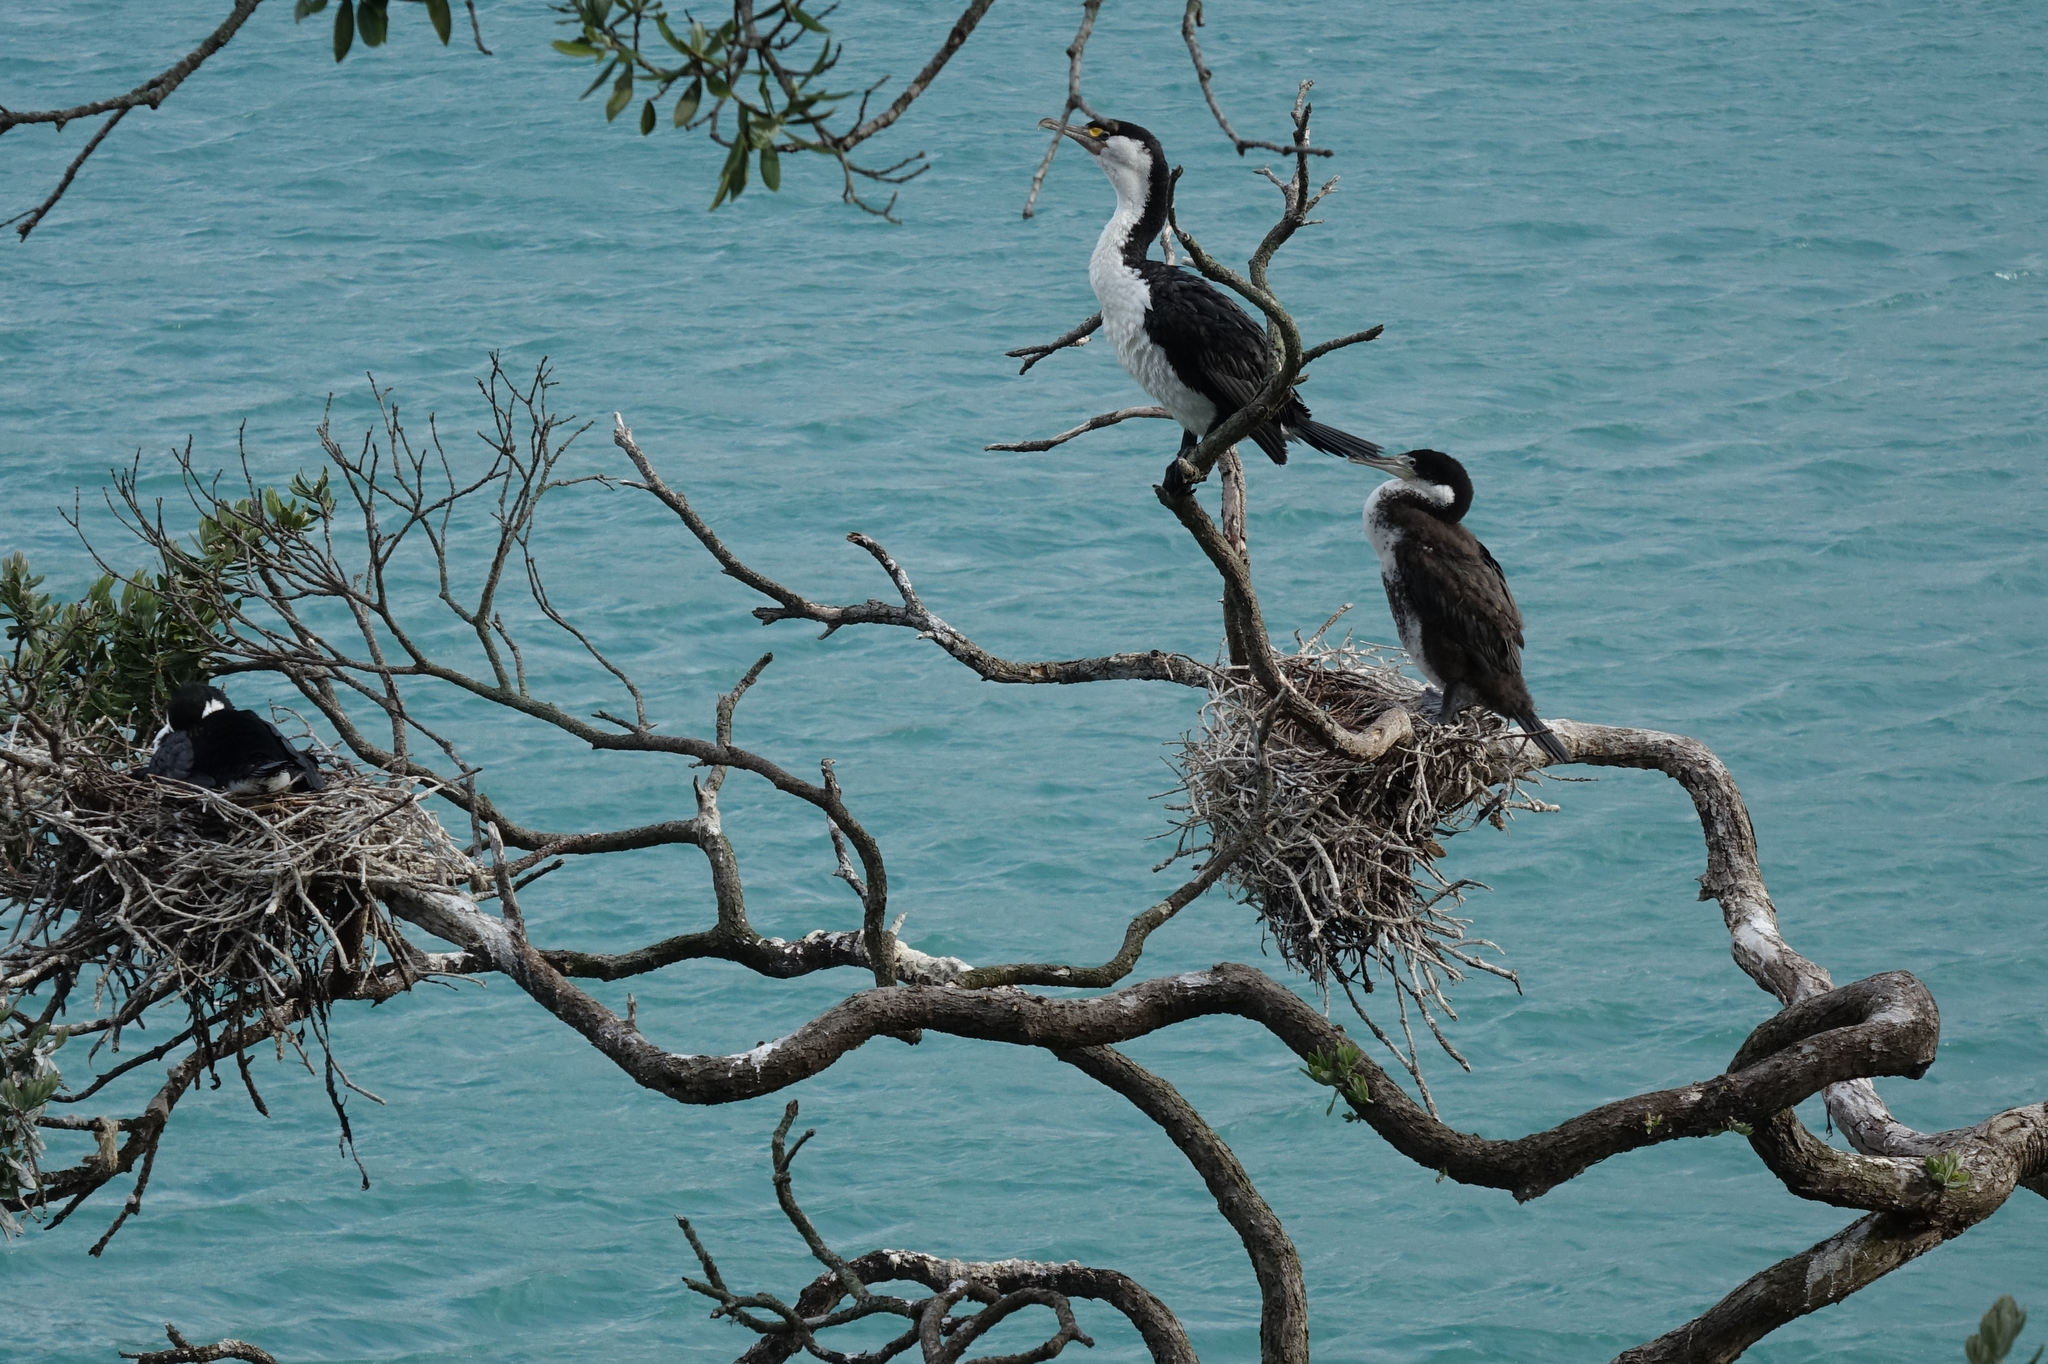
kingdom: Animalia
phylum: Chordata
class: Aves
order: Suliformes
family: Phalacrocoracidae
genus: Phalacrocorax
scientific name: Phalacrocorax varius
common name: Pied cormorant
